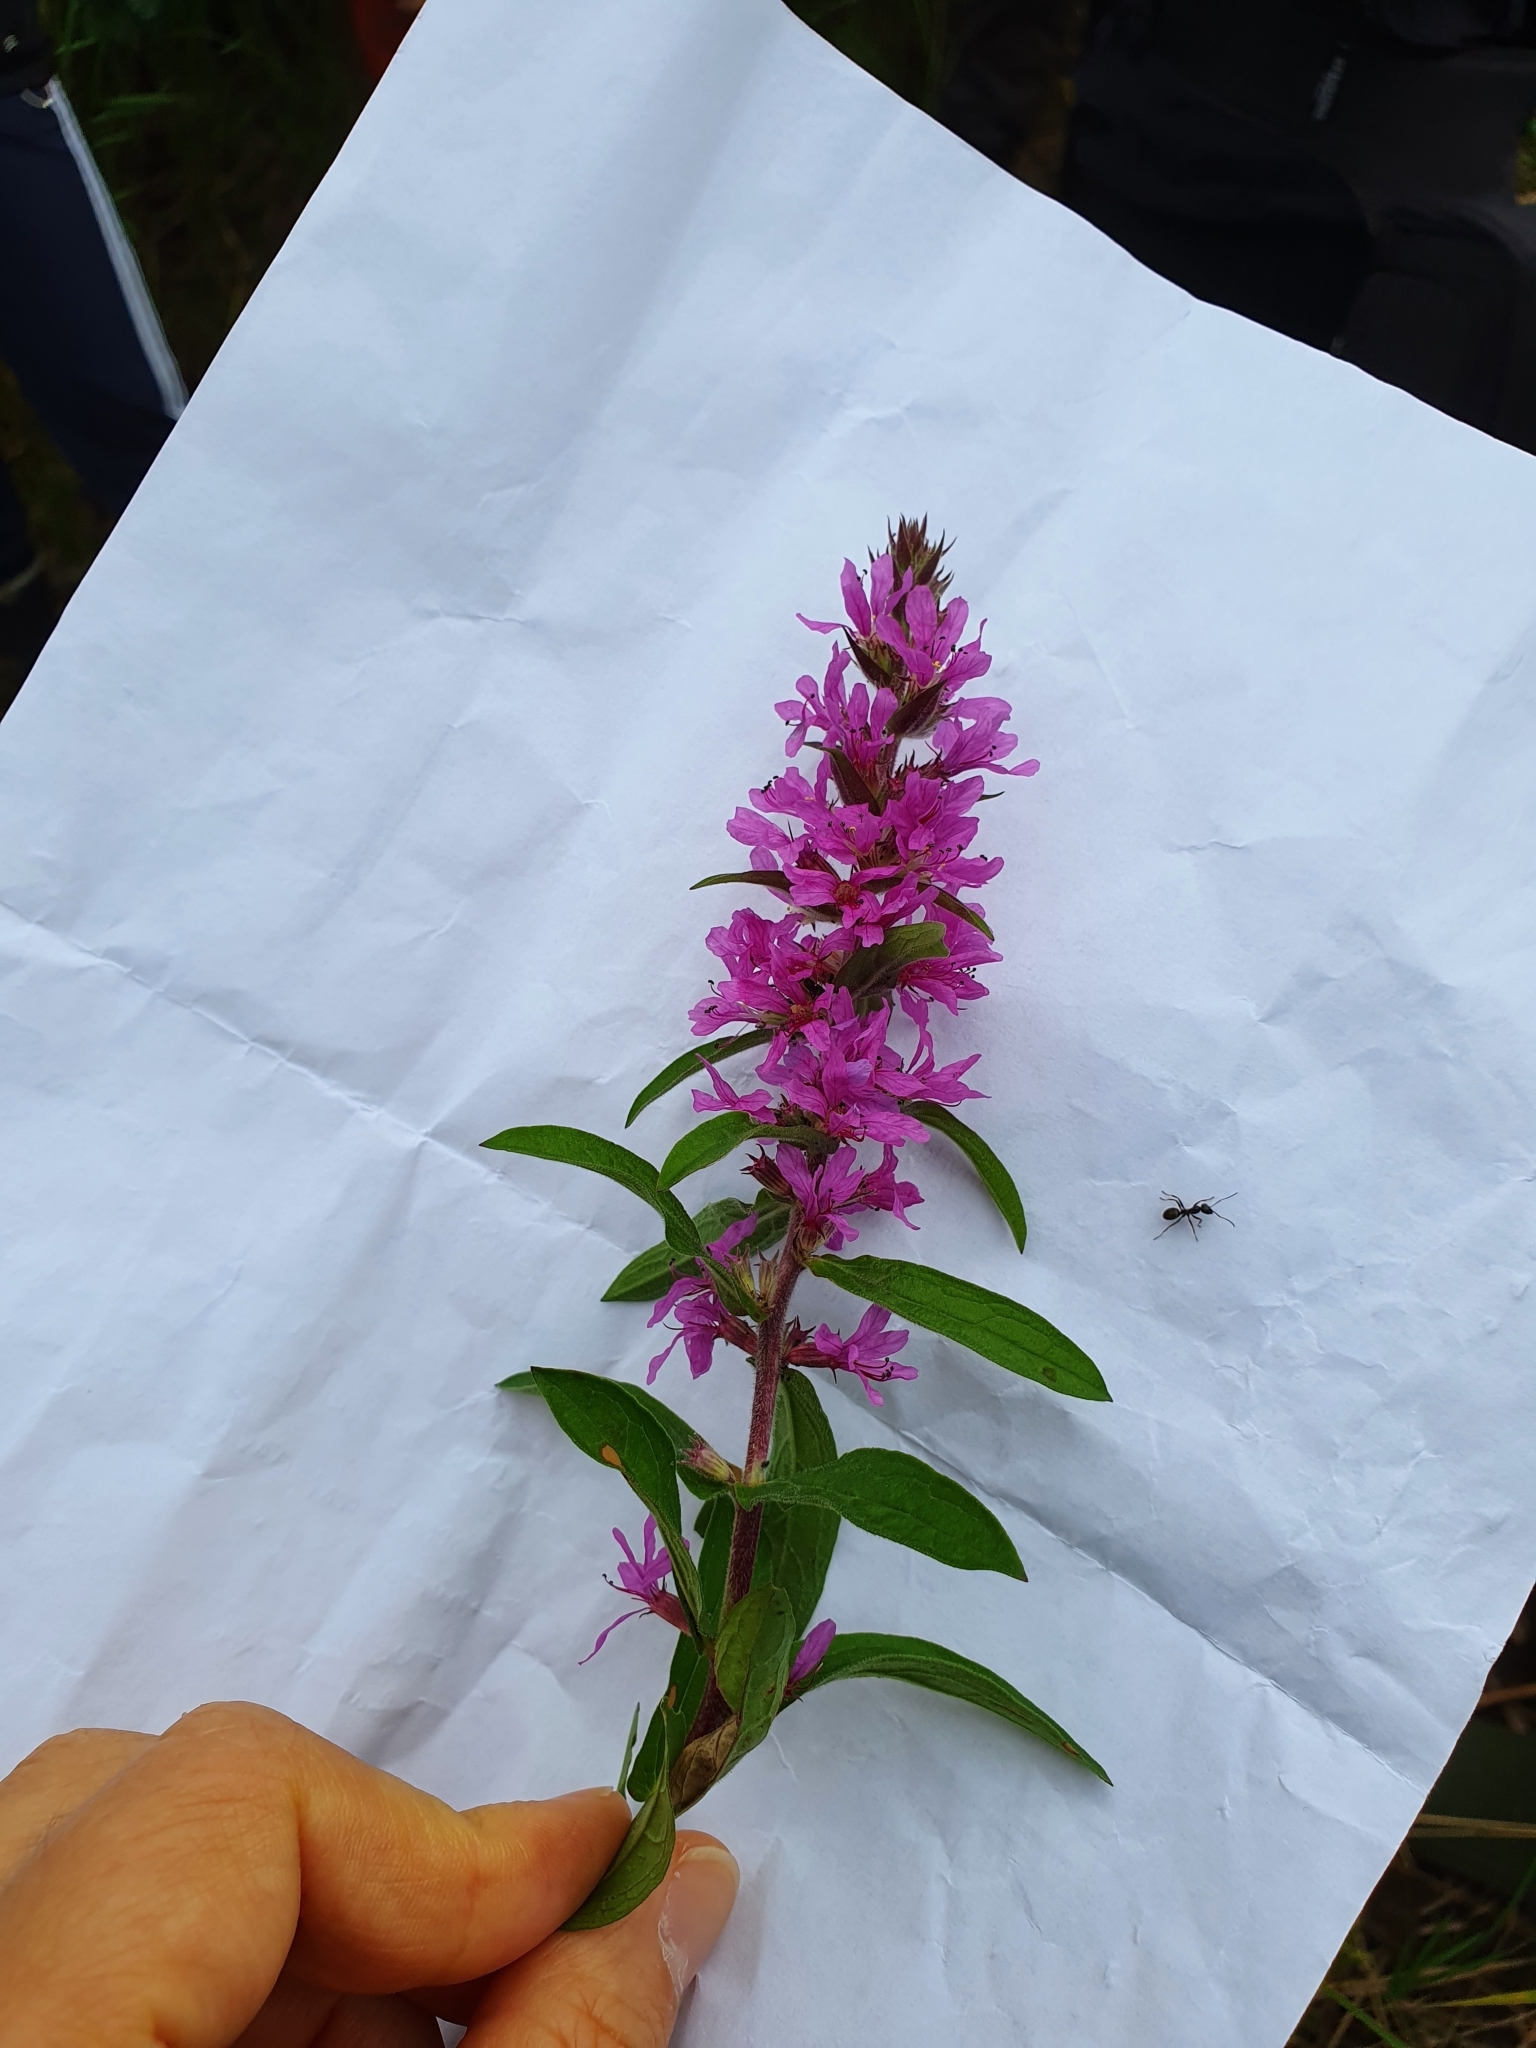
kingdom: Plantae
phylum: Tracheophyta
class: Magnoliopsida
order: Myrtales
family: Lythraceae
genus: Lythrum
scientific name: Lythrum salicaria
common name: Purple loosestrife
